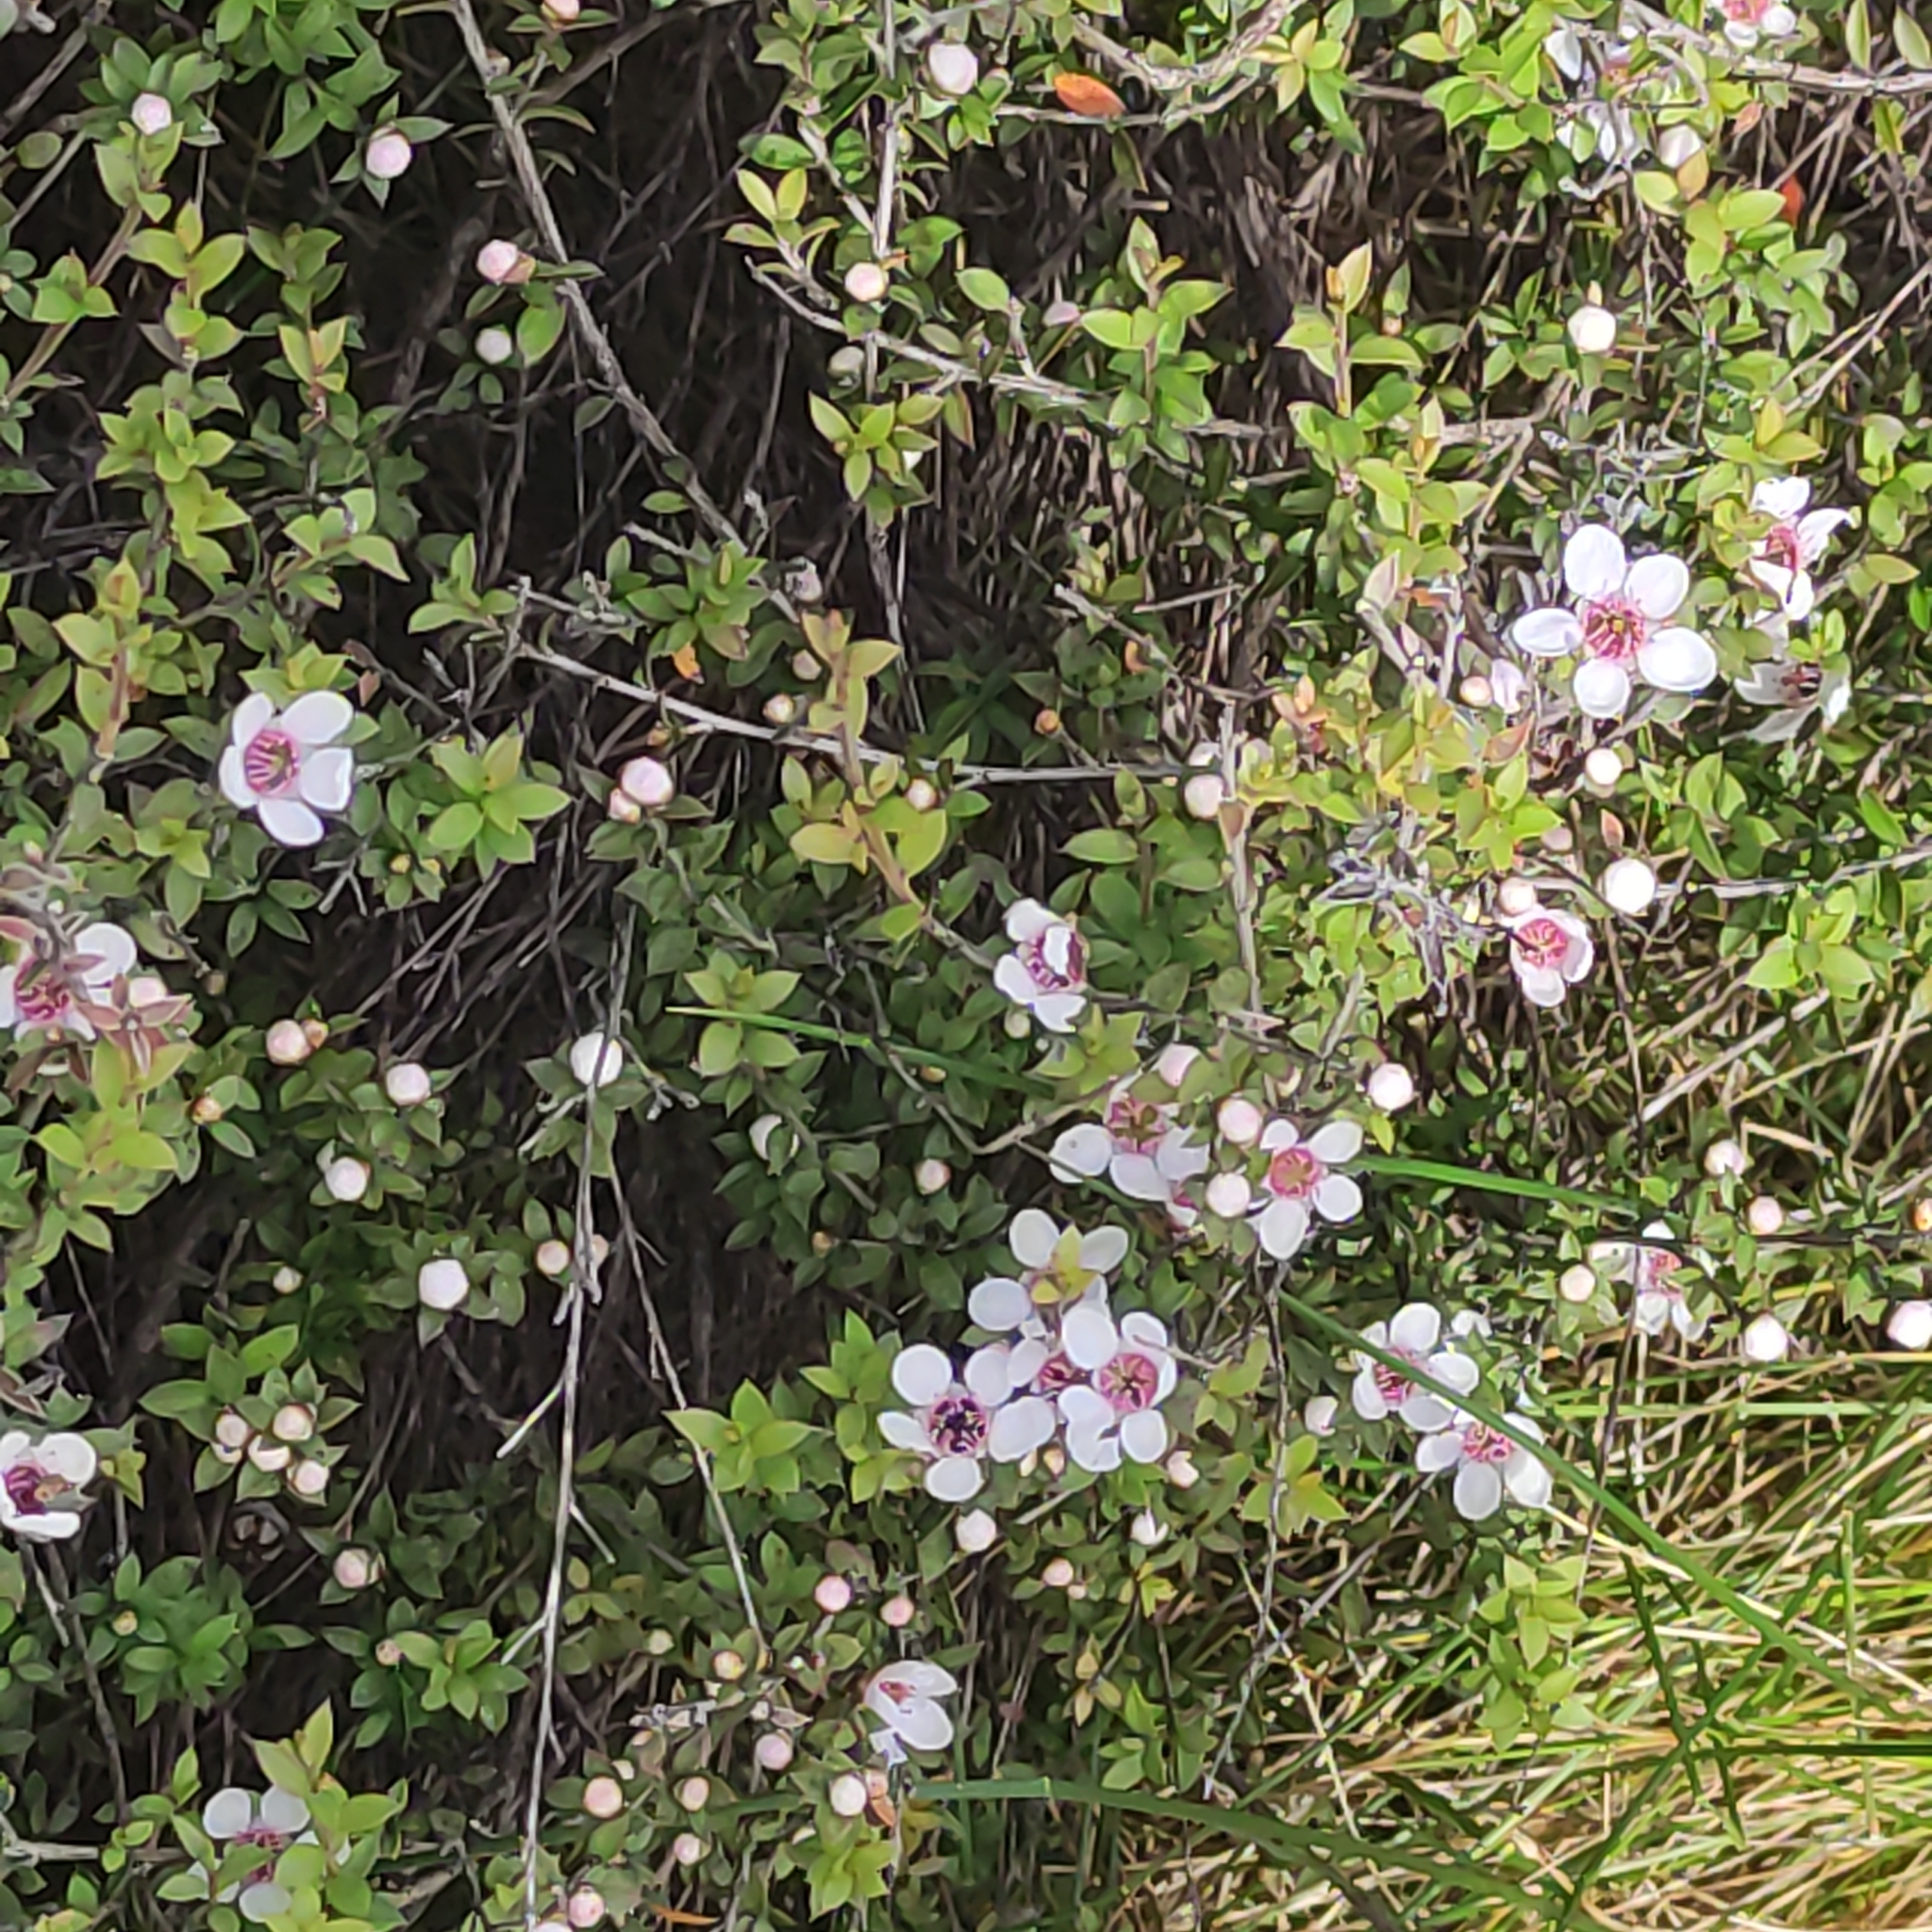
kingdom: Plantae
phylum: Tracheophyta
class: Magnoliopsida
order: Myrtales
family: Myrtaceae
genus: Leptospermum
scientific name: Leptospermum scoparium
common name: Broom tea-tree
